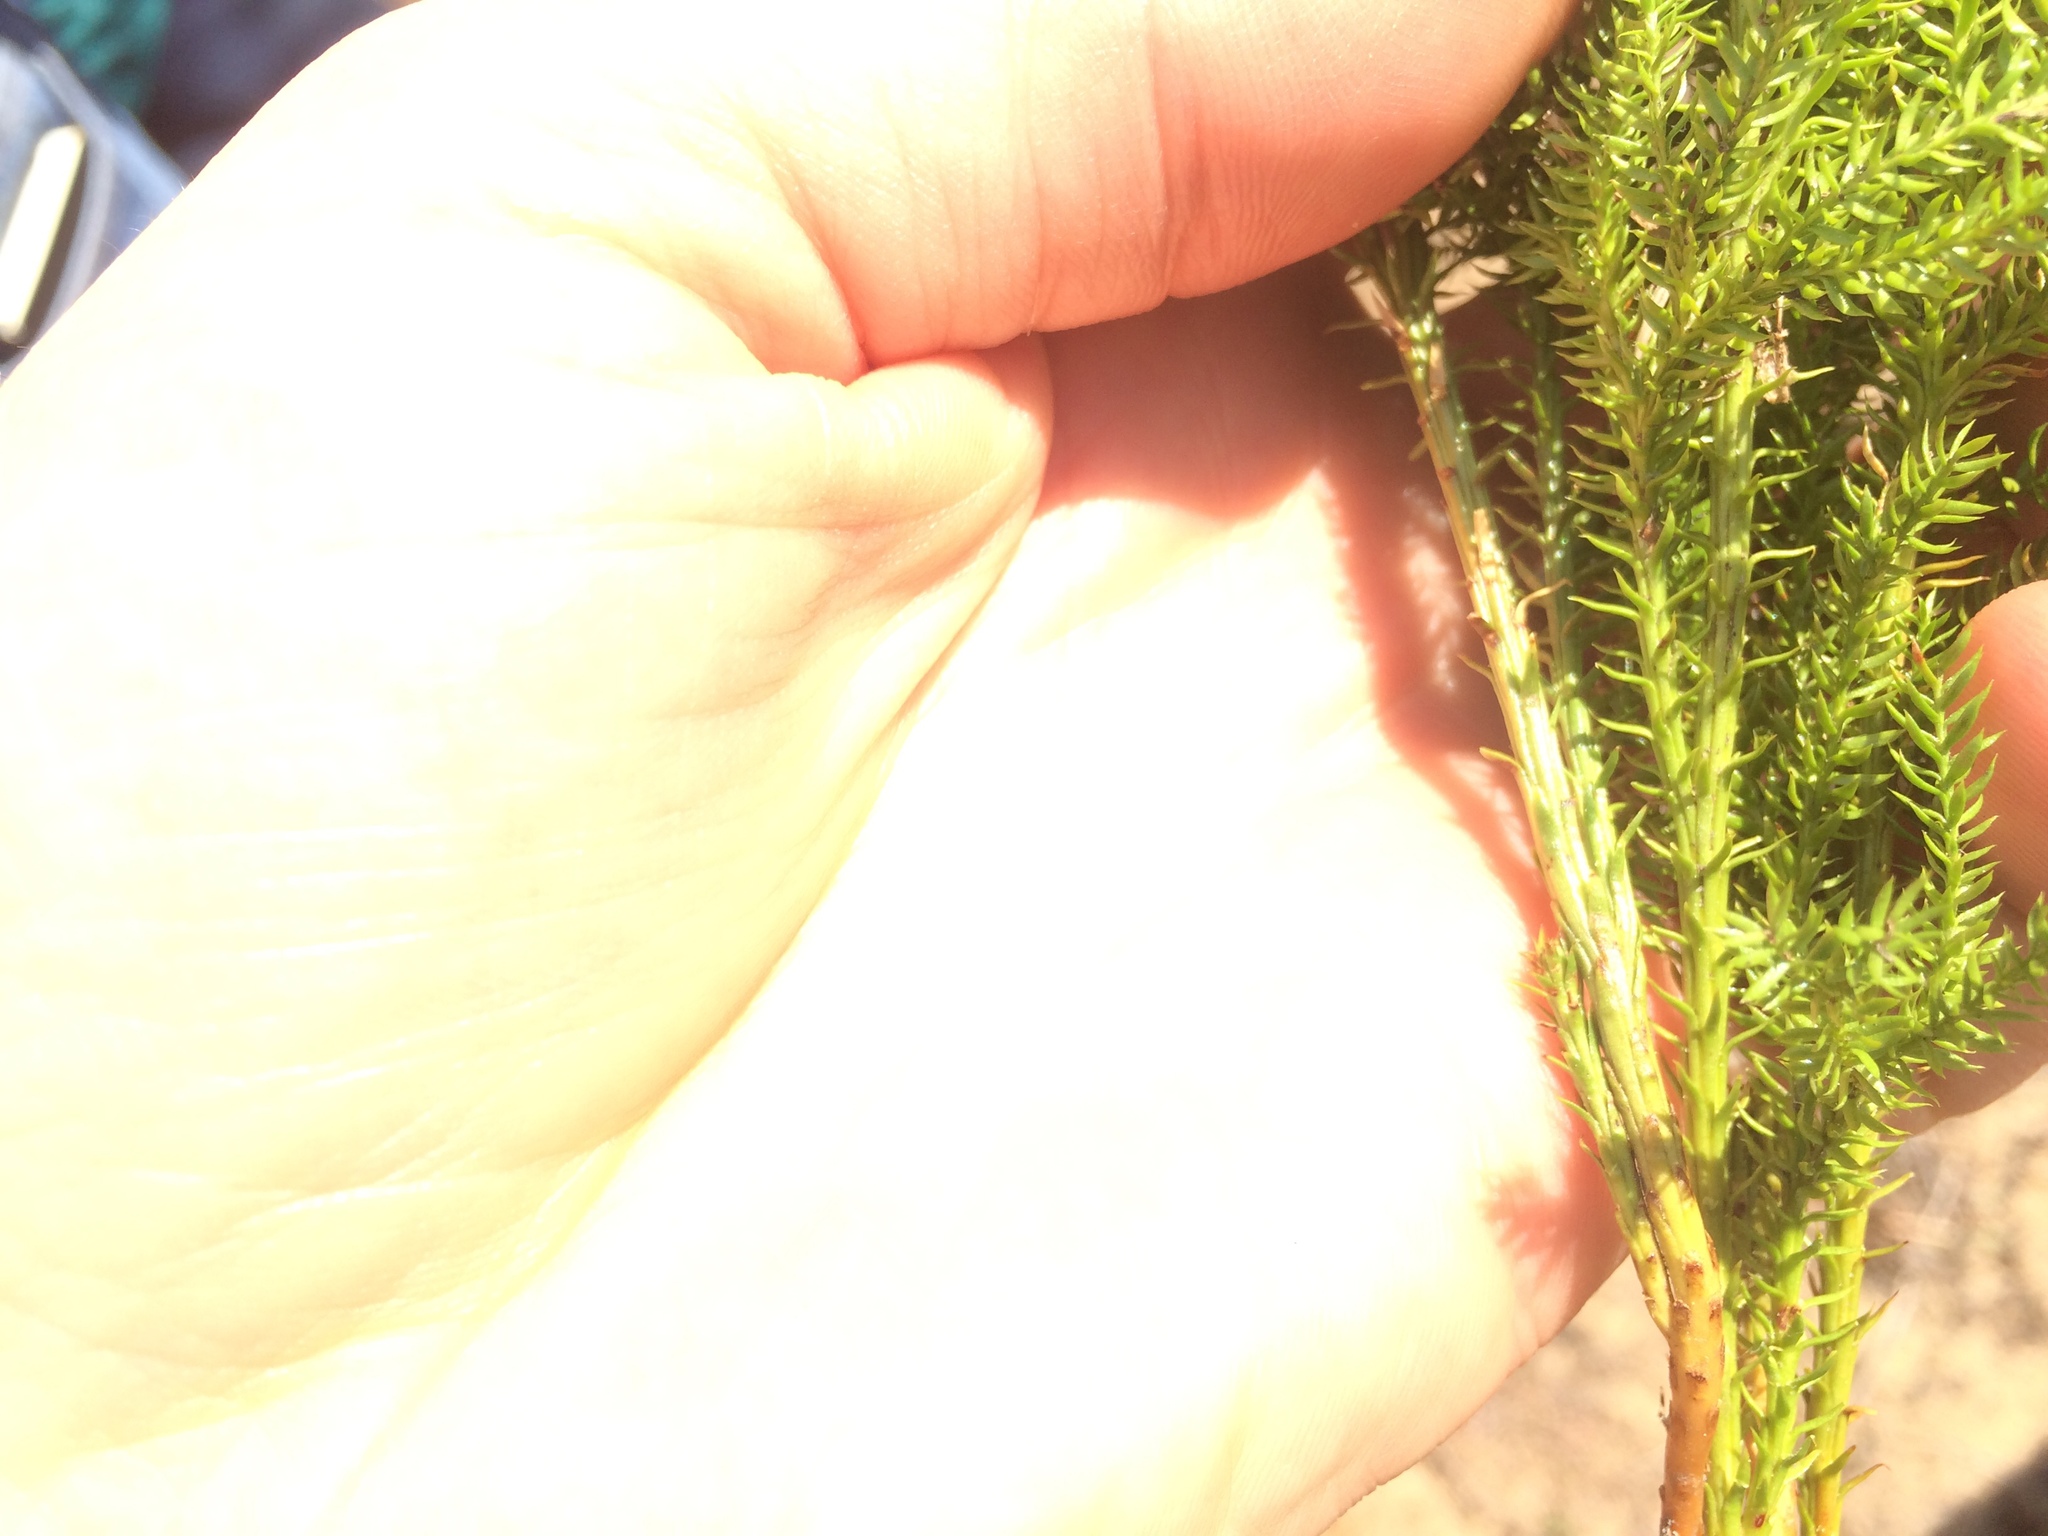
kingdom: Plantae
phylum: Tracheophyta
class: Lycopodiopsida
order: Lycopodiales
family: Lycopodiaceae
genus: Dendrolycopodium
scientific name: Dendrolycopodium dendroideum
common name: Northern tree-clubmoss
